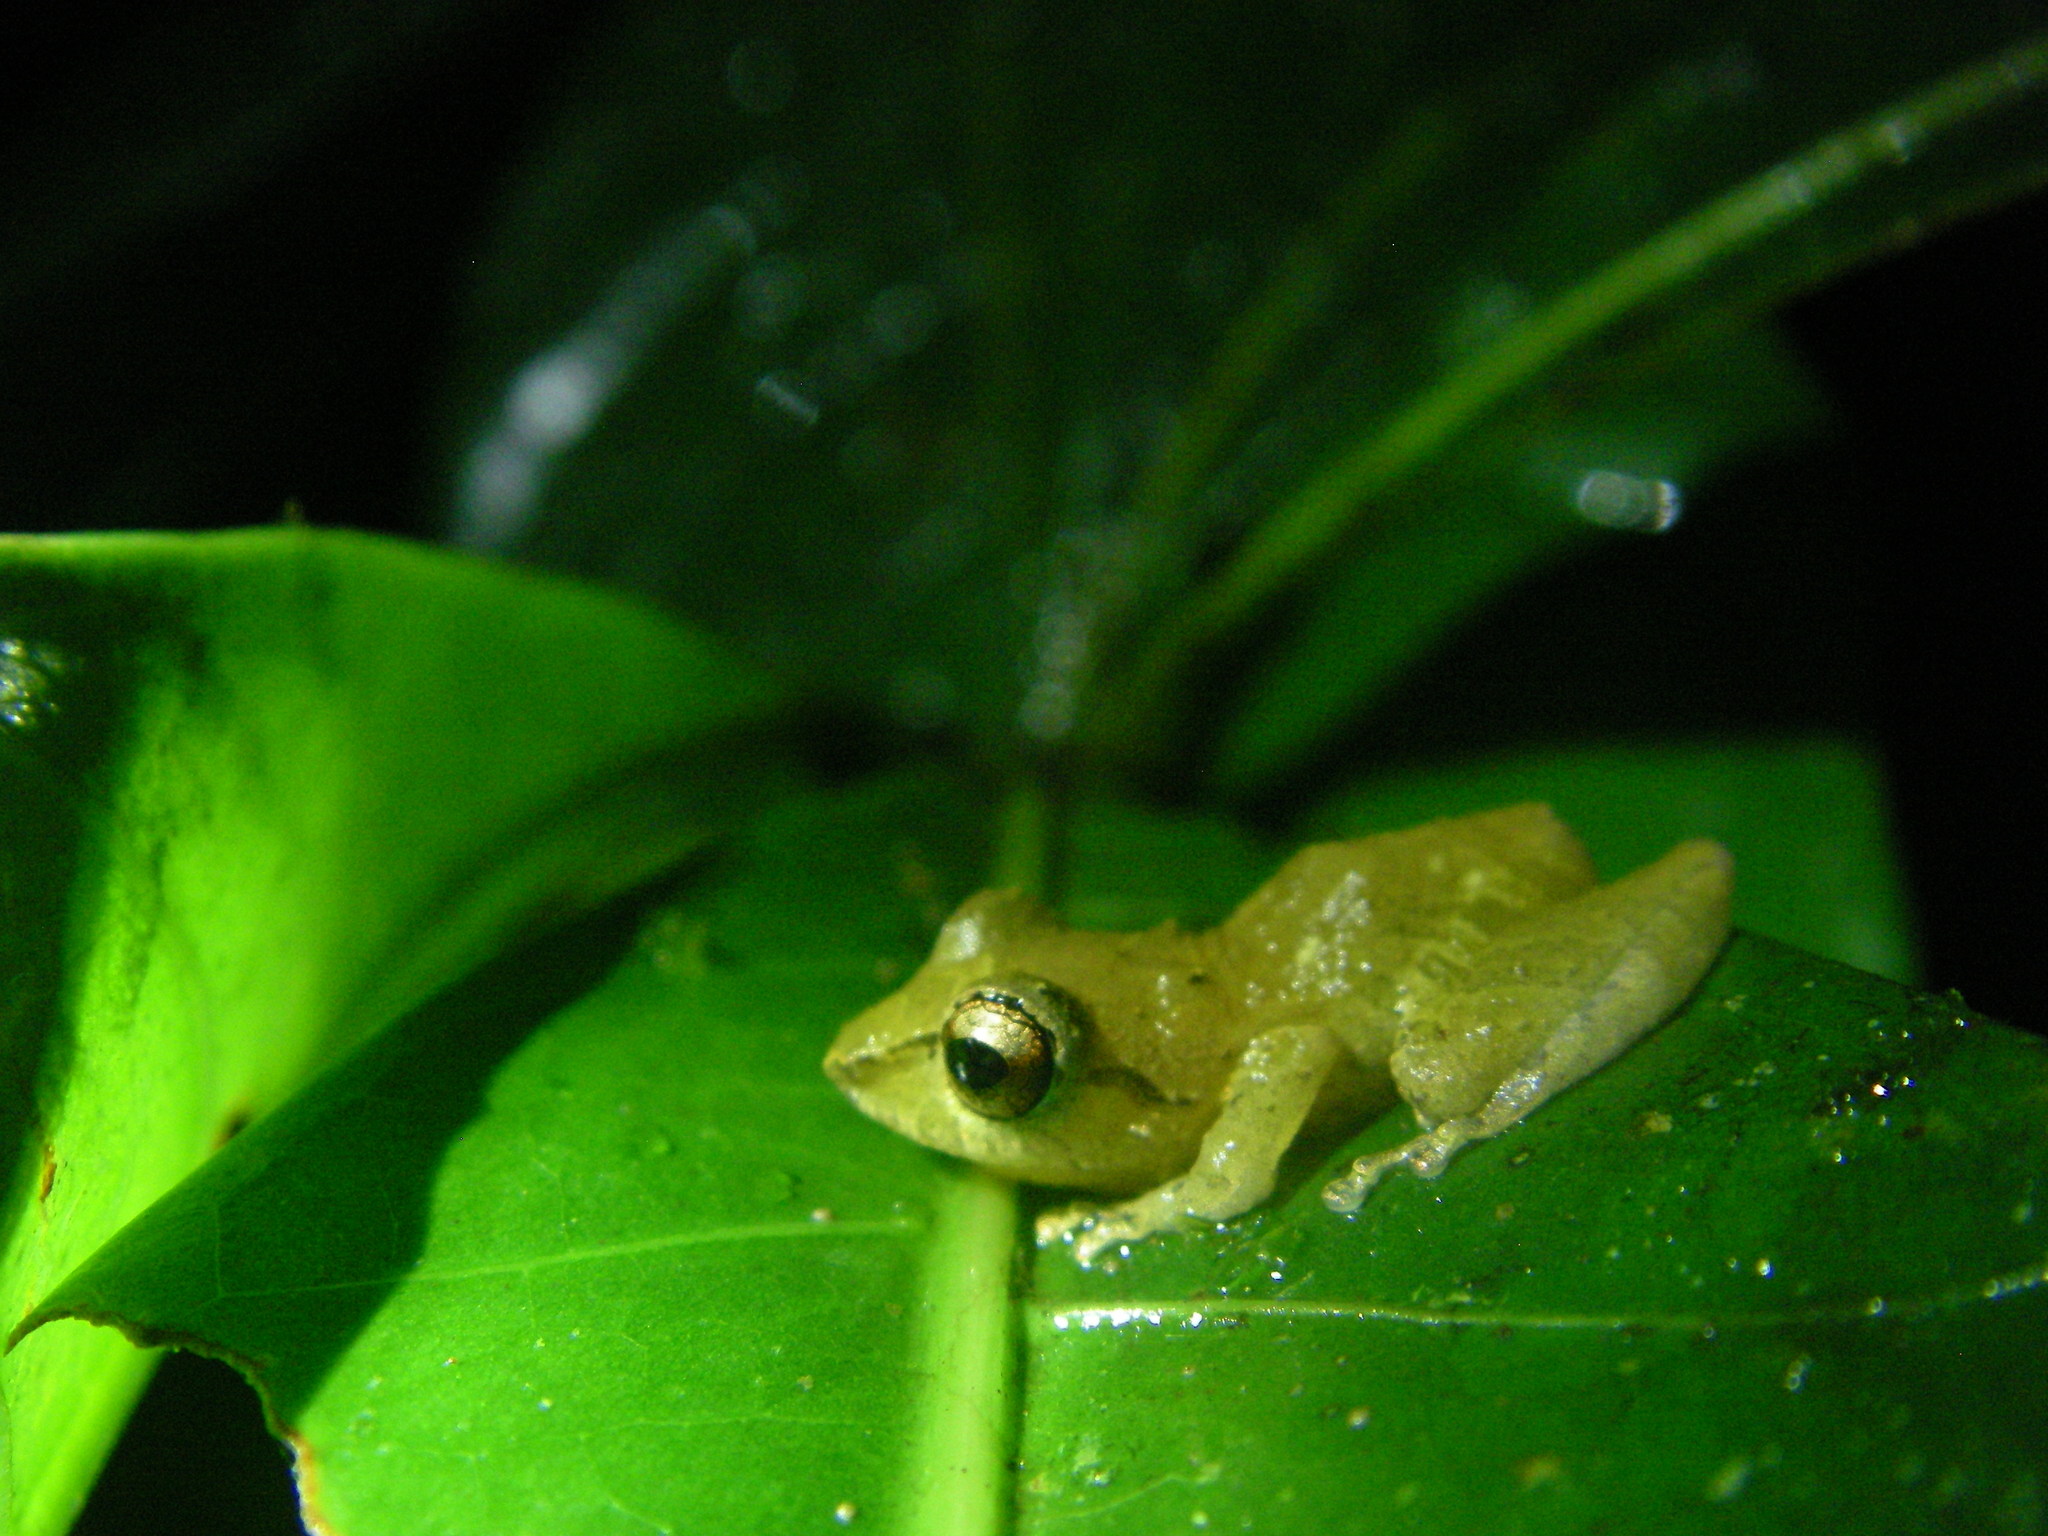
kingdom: Animalia
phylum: Chordata
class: Amphibia
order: Anura
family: Craugastoridae
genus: Pristimantis
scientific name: Pristimantis ridens
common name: Rio san juan robber frog
